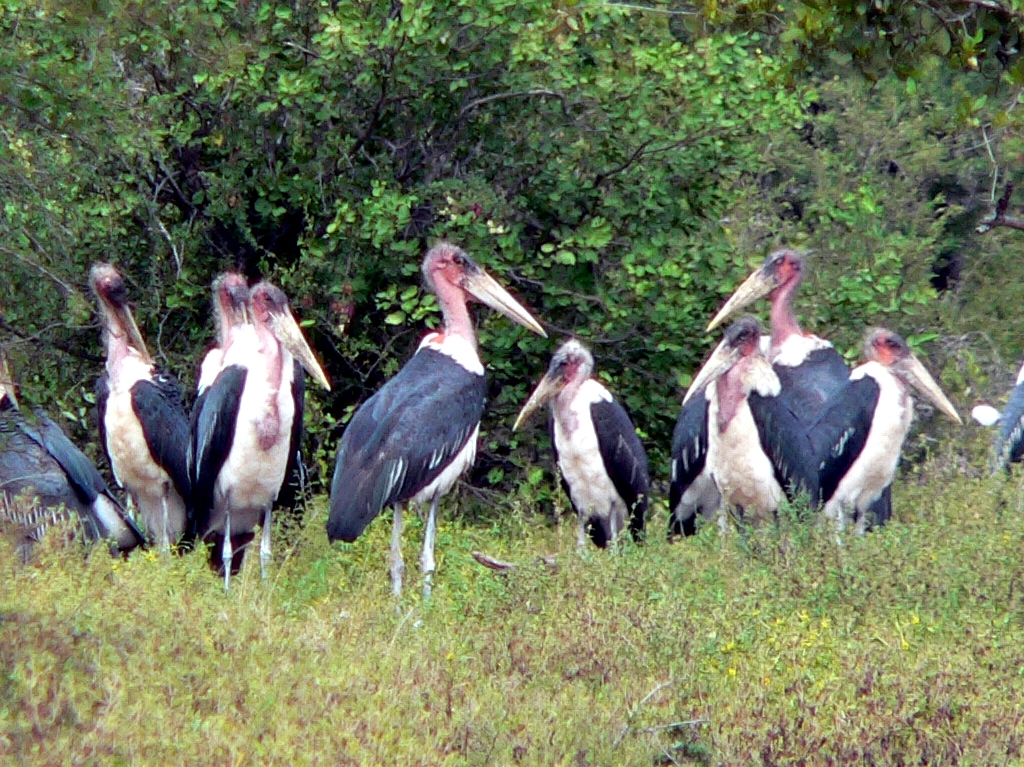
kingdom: Animalia
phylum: Chordata
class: Aves
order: Ciconiiformes
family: Ciconiidae
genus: Leptoptilos
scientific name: Leptoptilos crumenifer
